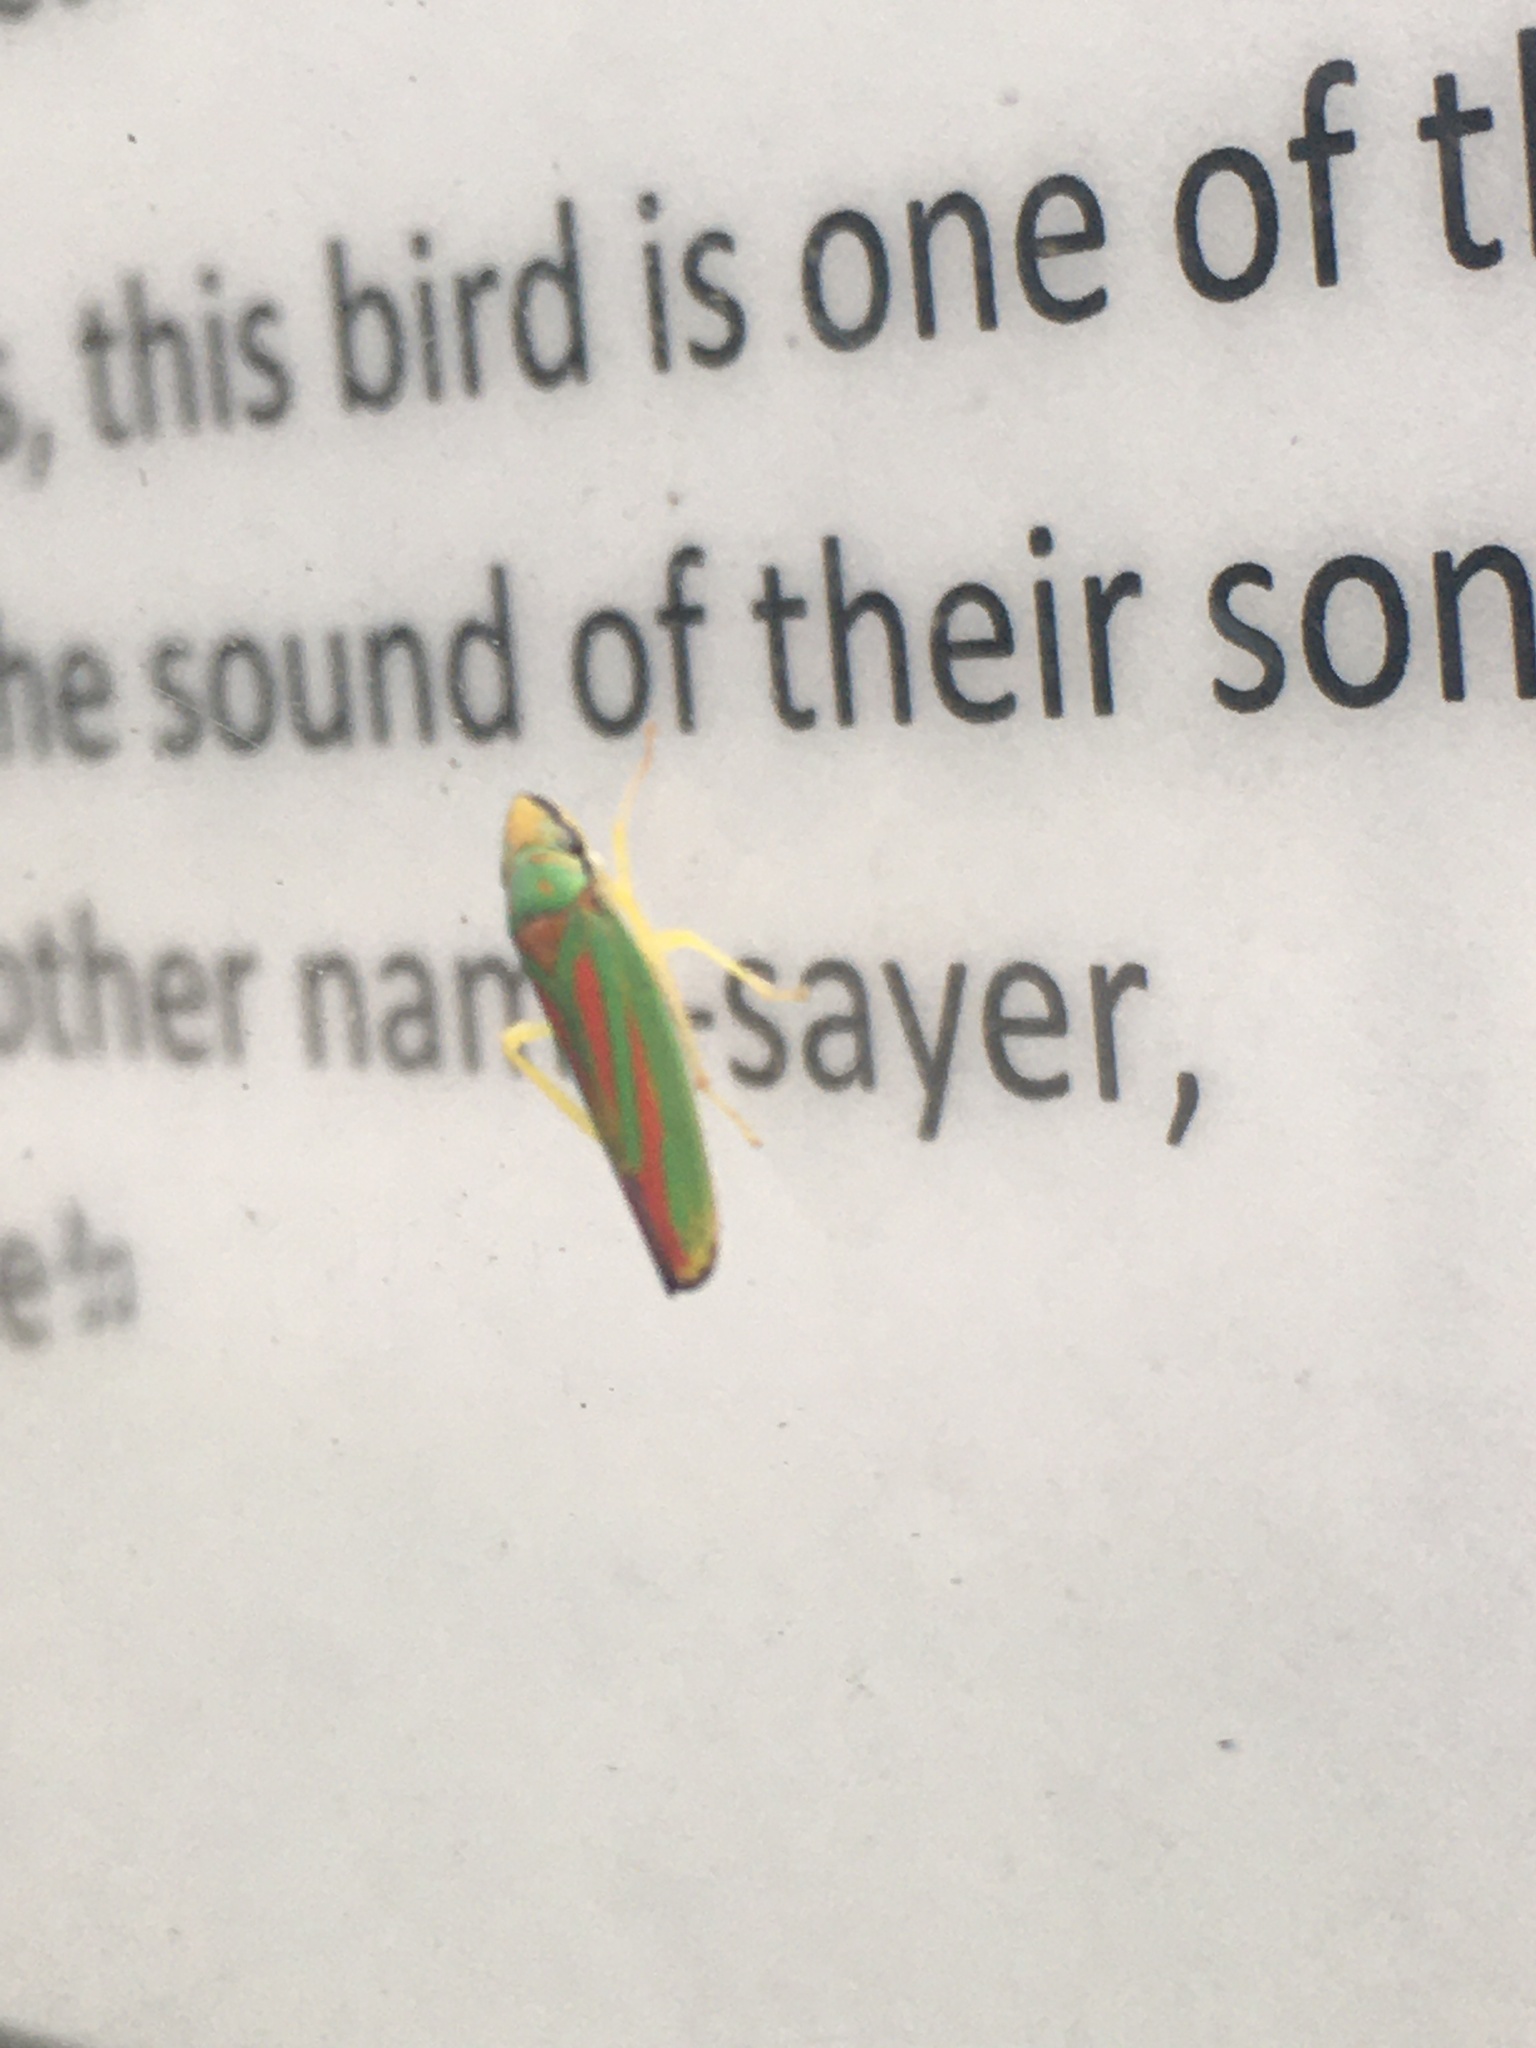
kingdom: Animalia
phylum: Arthropoda
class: Insecta
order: Hemiptera
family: Cicadellidae
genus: Graphocephala
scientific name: Graphocephala fennahi
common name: Rhododendron leafhopper
